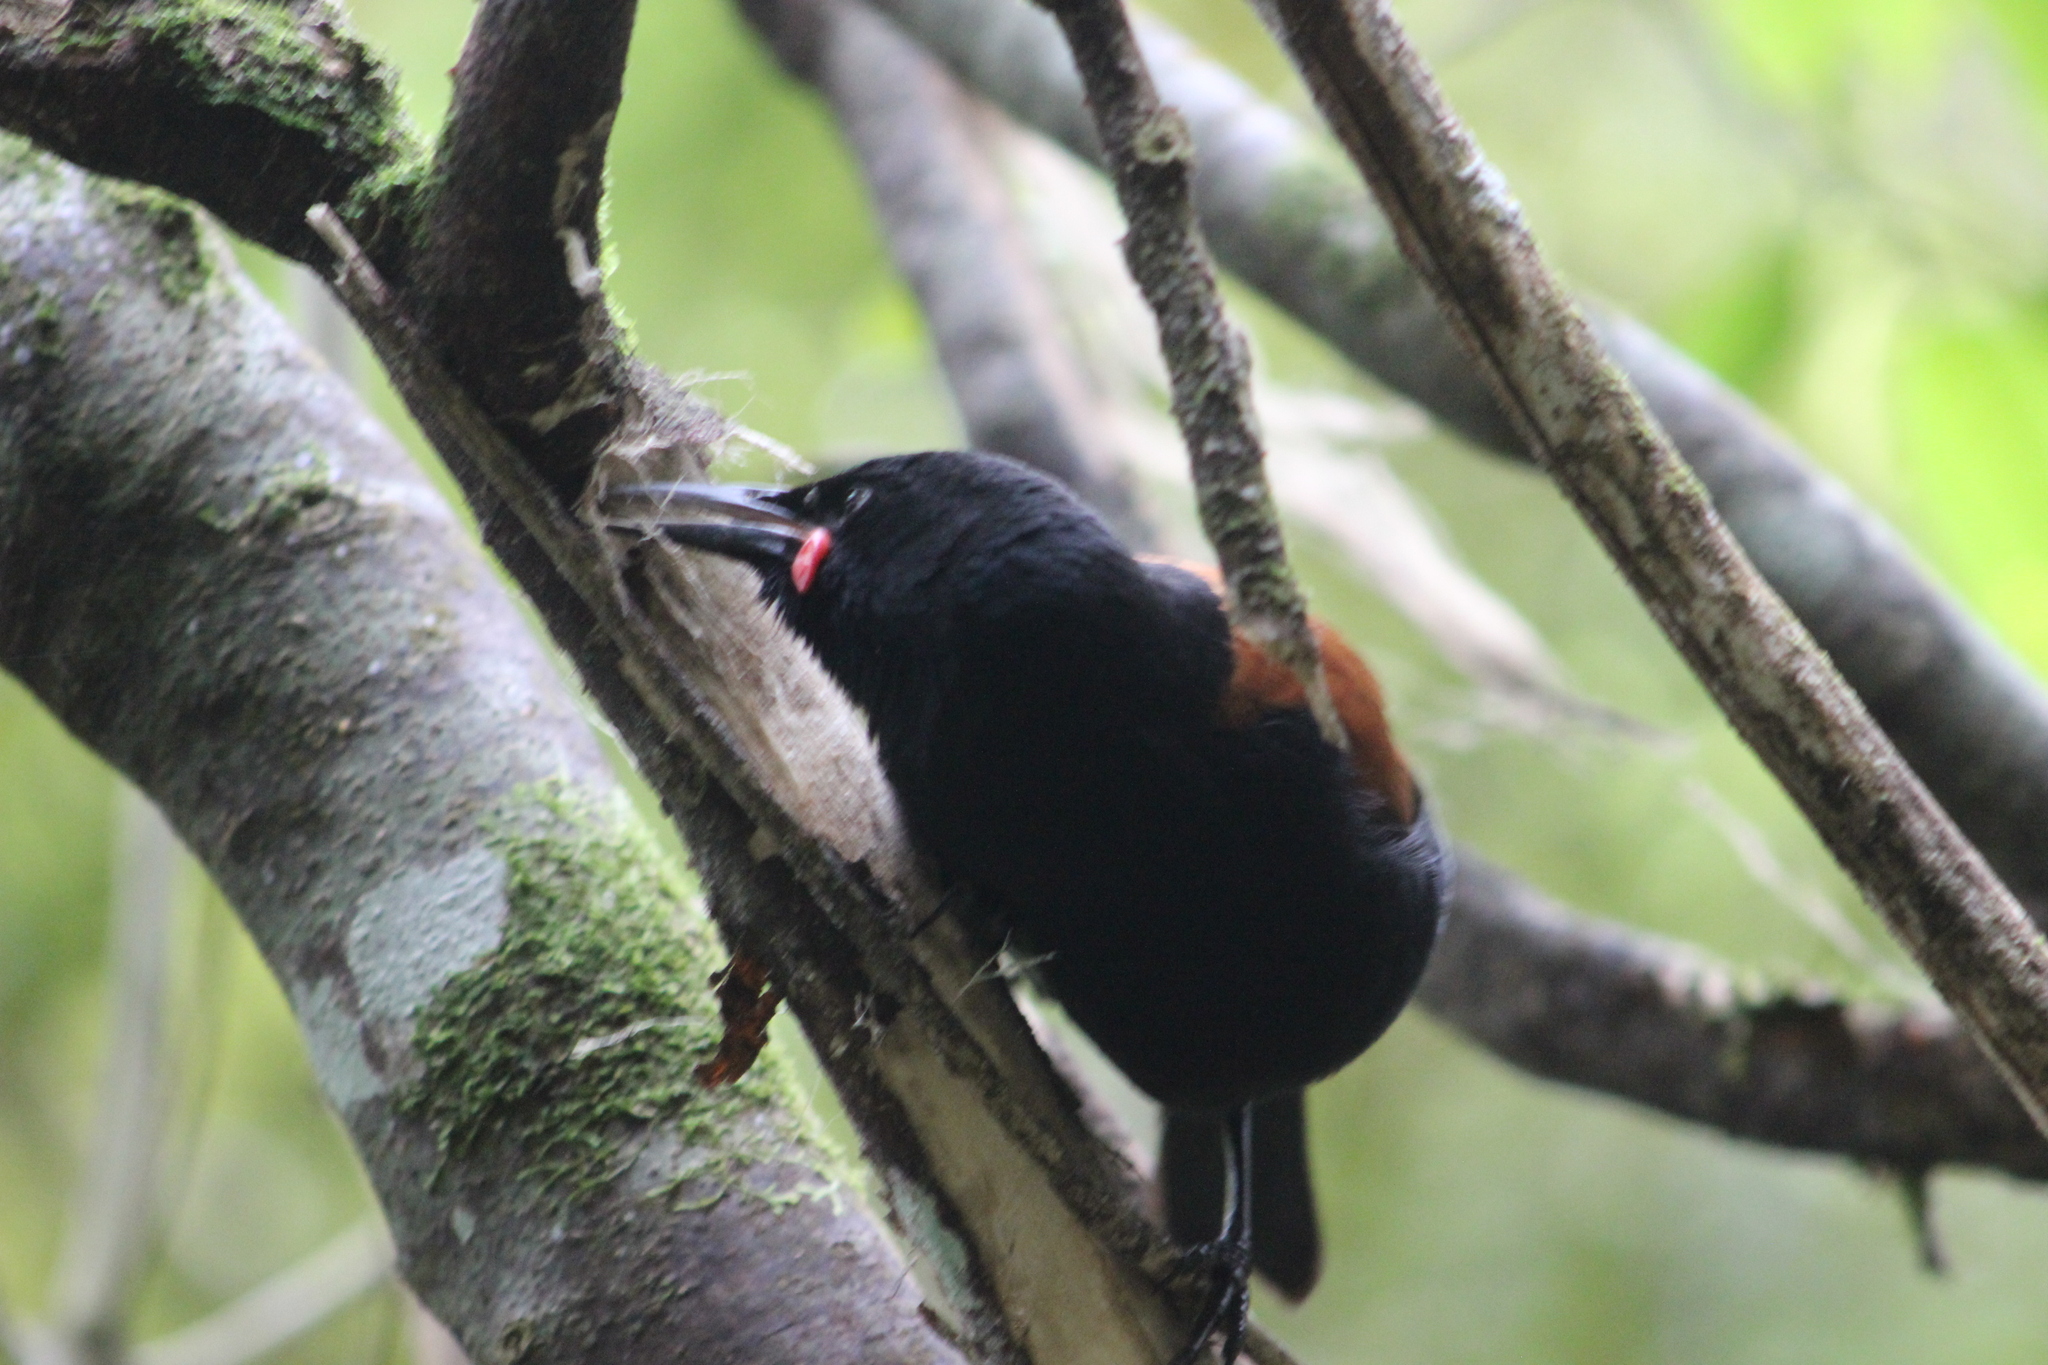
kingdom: Animalia
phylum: Chordata
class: Aves
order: Passeriformes
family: Callaeatidae
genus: Philesturnus
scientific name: Philesturnus carunculatus
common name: South island saddleback
